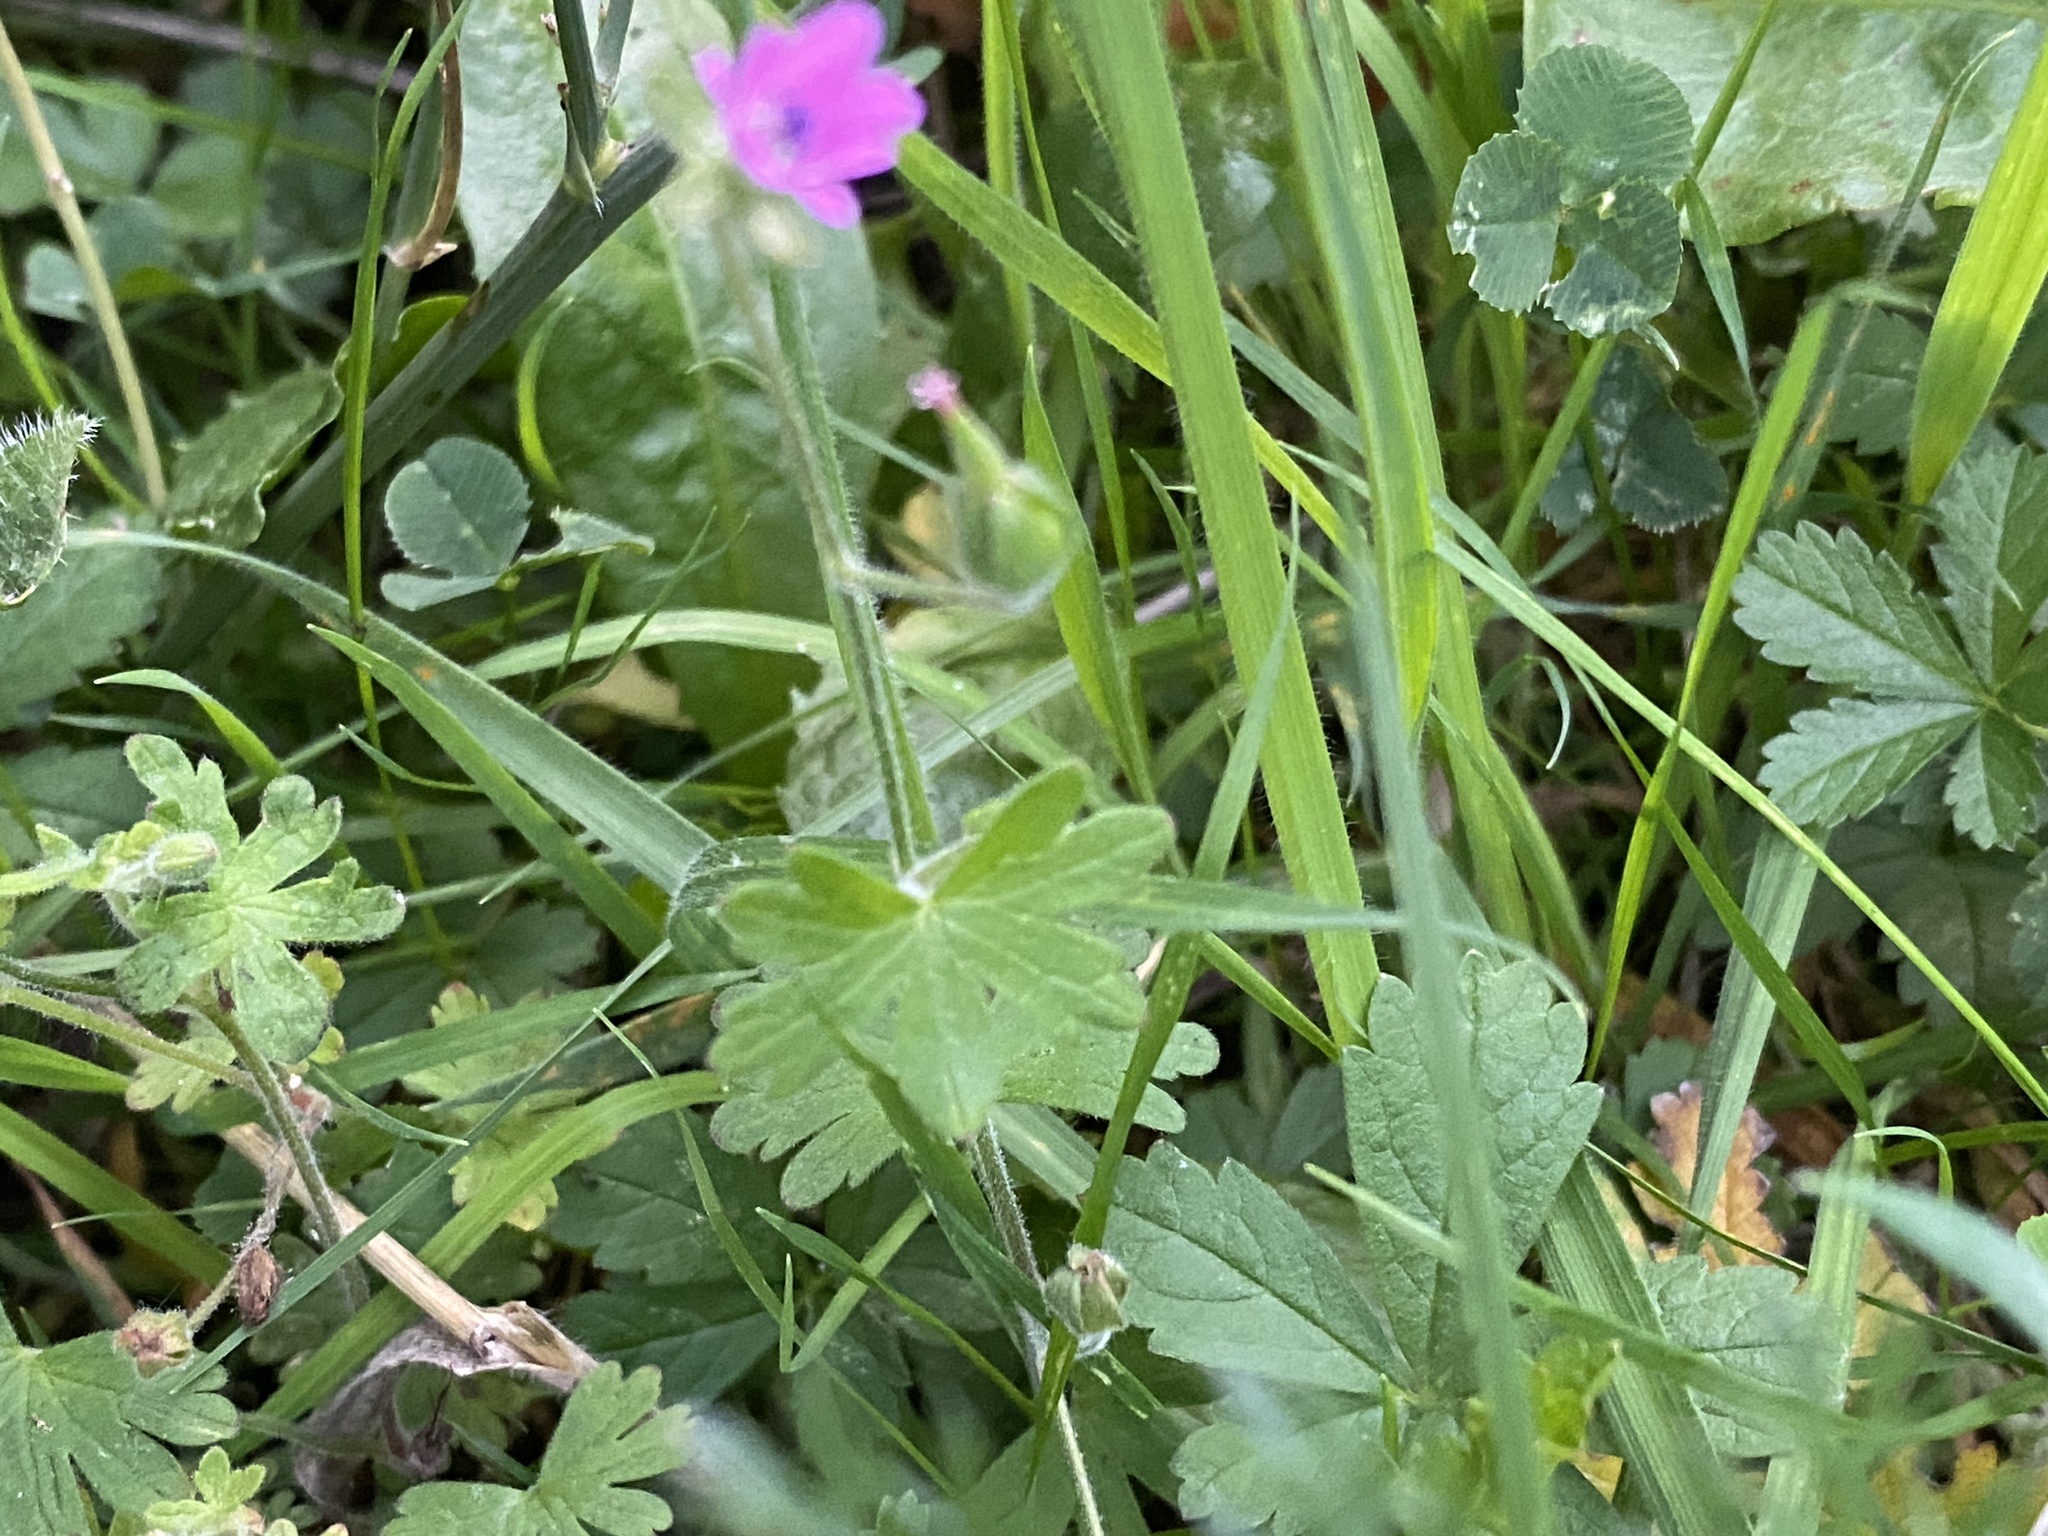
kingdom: Plantae
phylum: Tracheophyta
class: Magnoliopsida
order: Geraniales
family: Geraniaceae
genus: Geranium
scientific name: Geranium molle
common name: Dove's-foot crane's-bill
